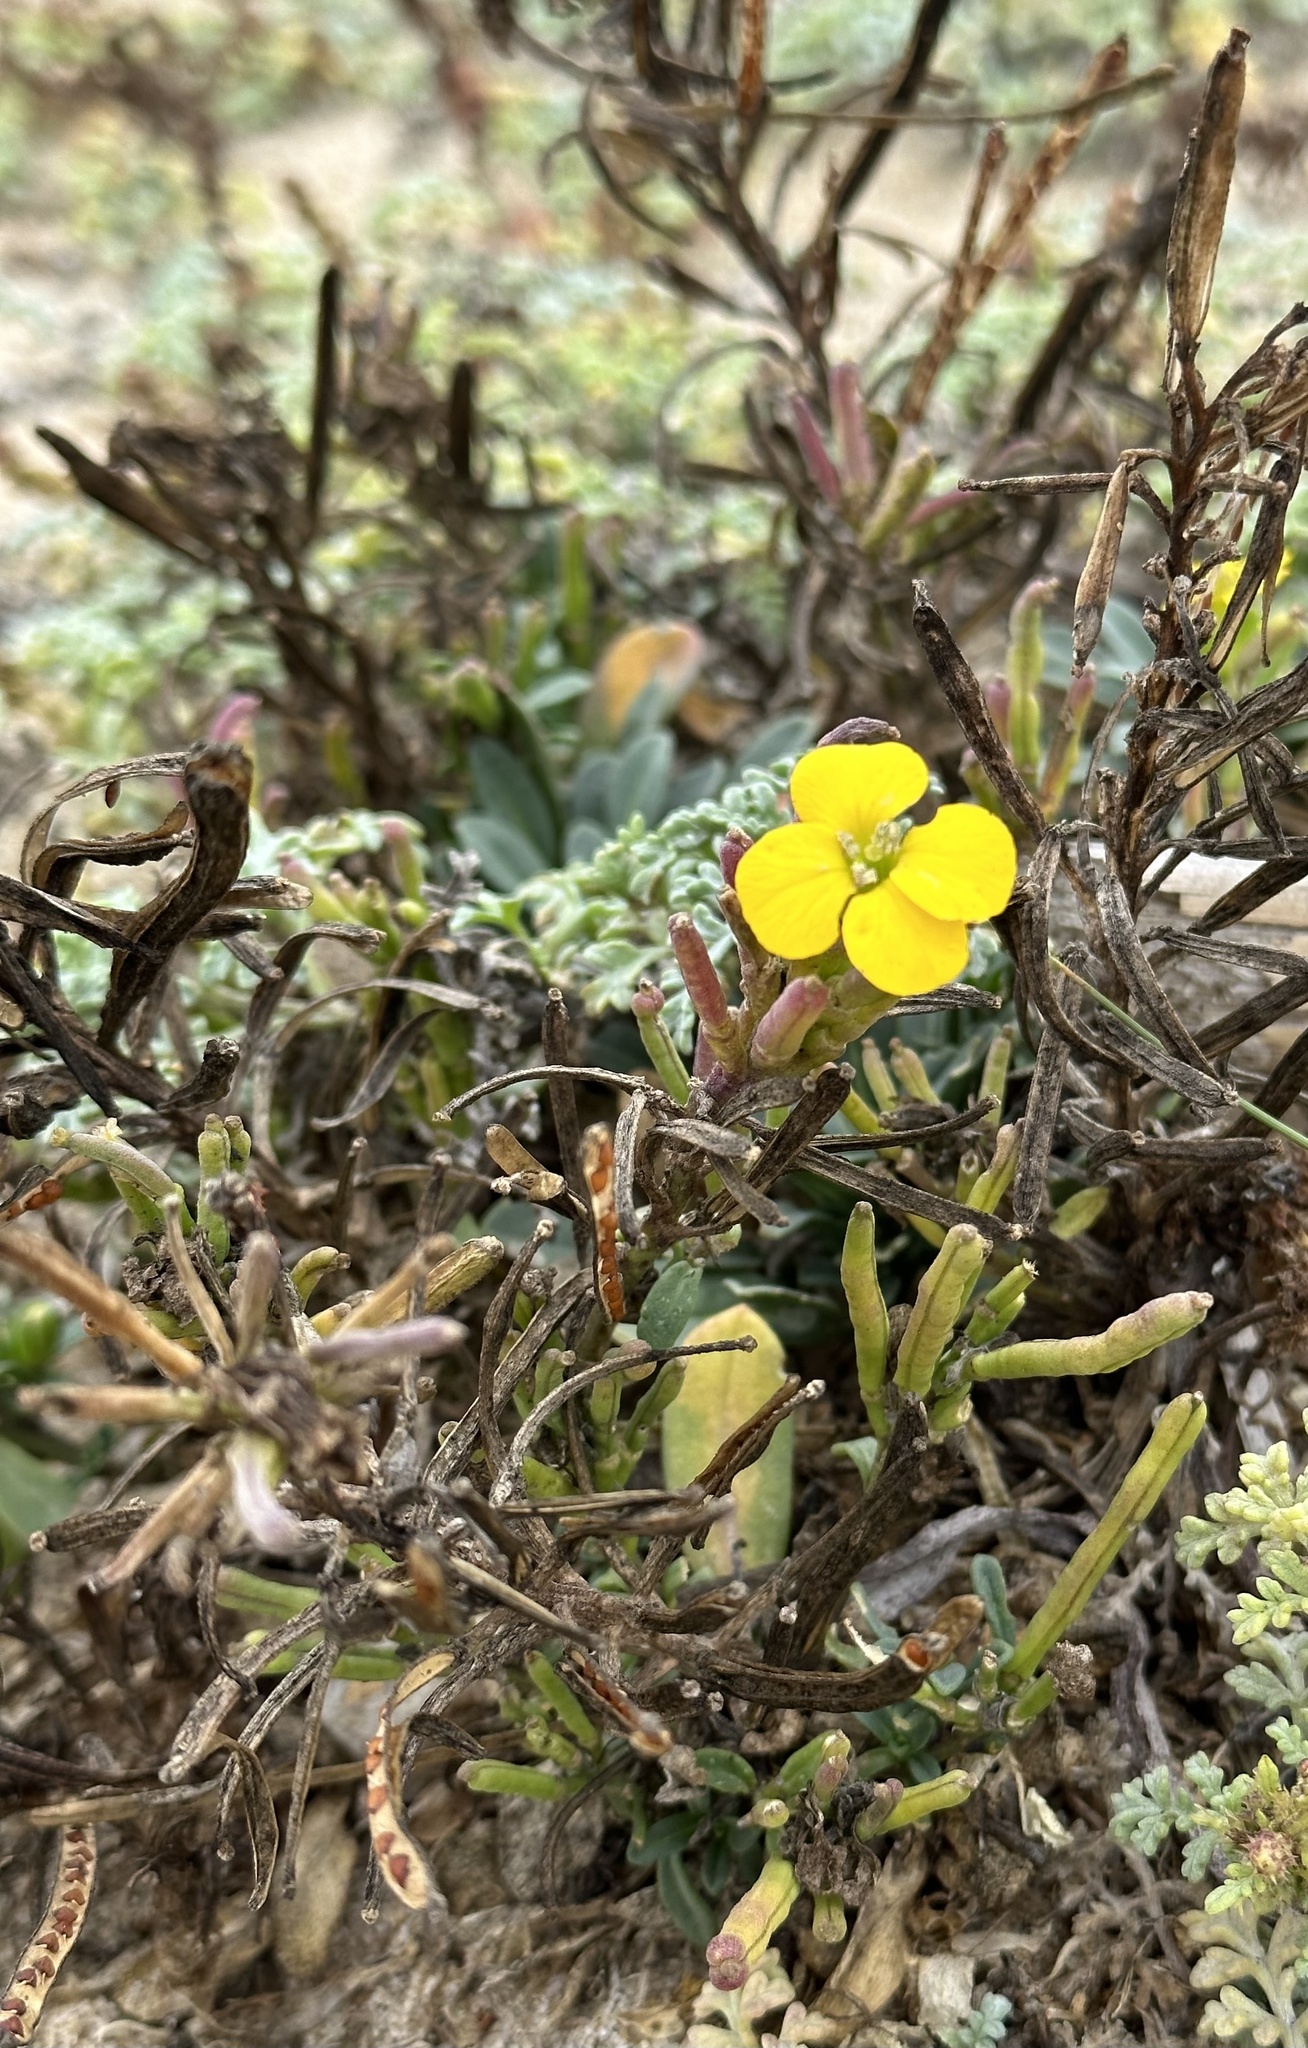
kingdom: Plantae
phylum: Tracheophyta
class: Magnoliopsida
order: Brassicales
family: Brassicaceae
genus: Erysimum
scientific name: Erysimum menziesii
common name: Menzies's wallflower
